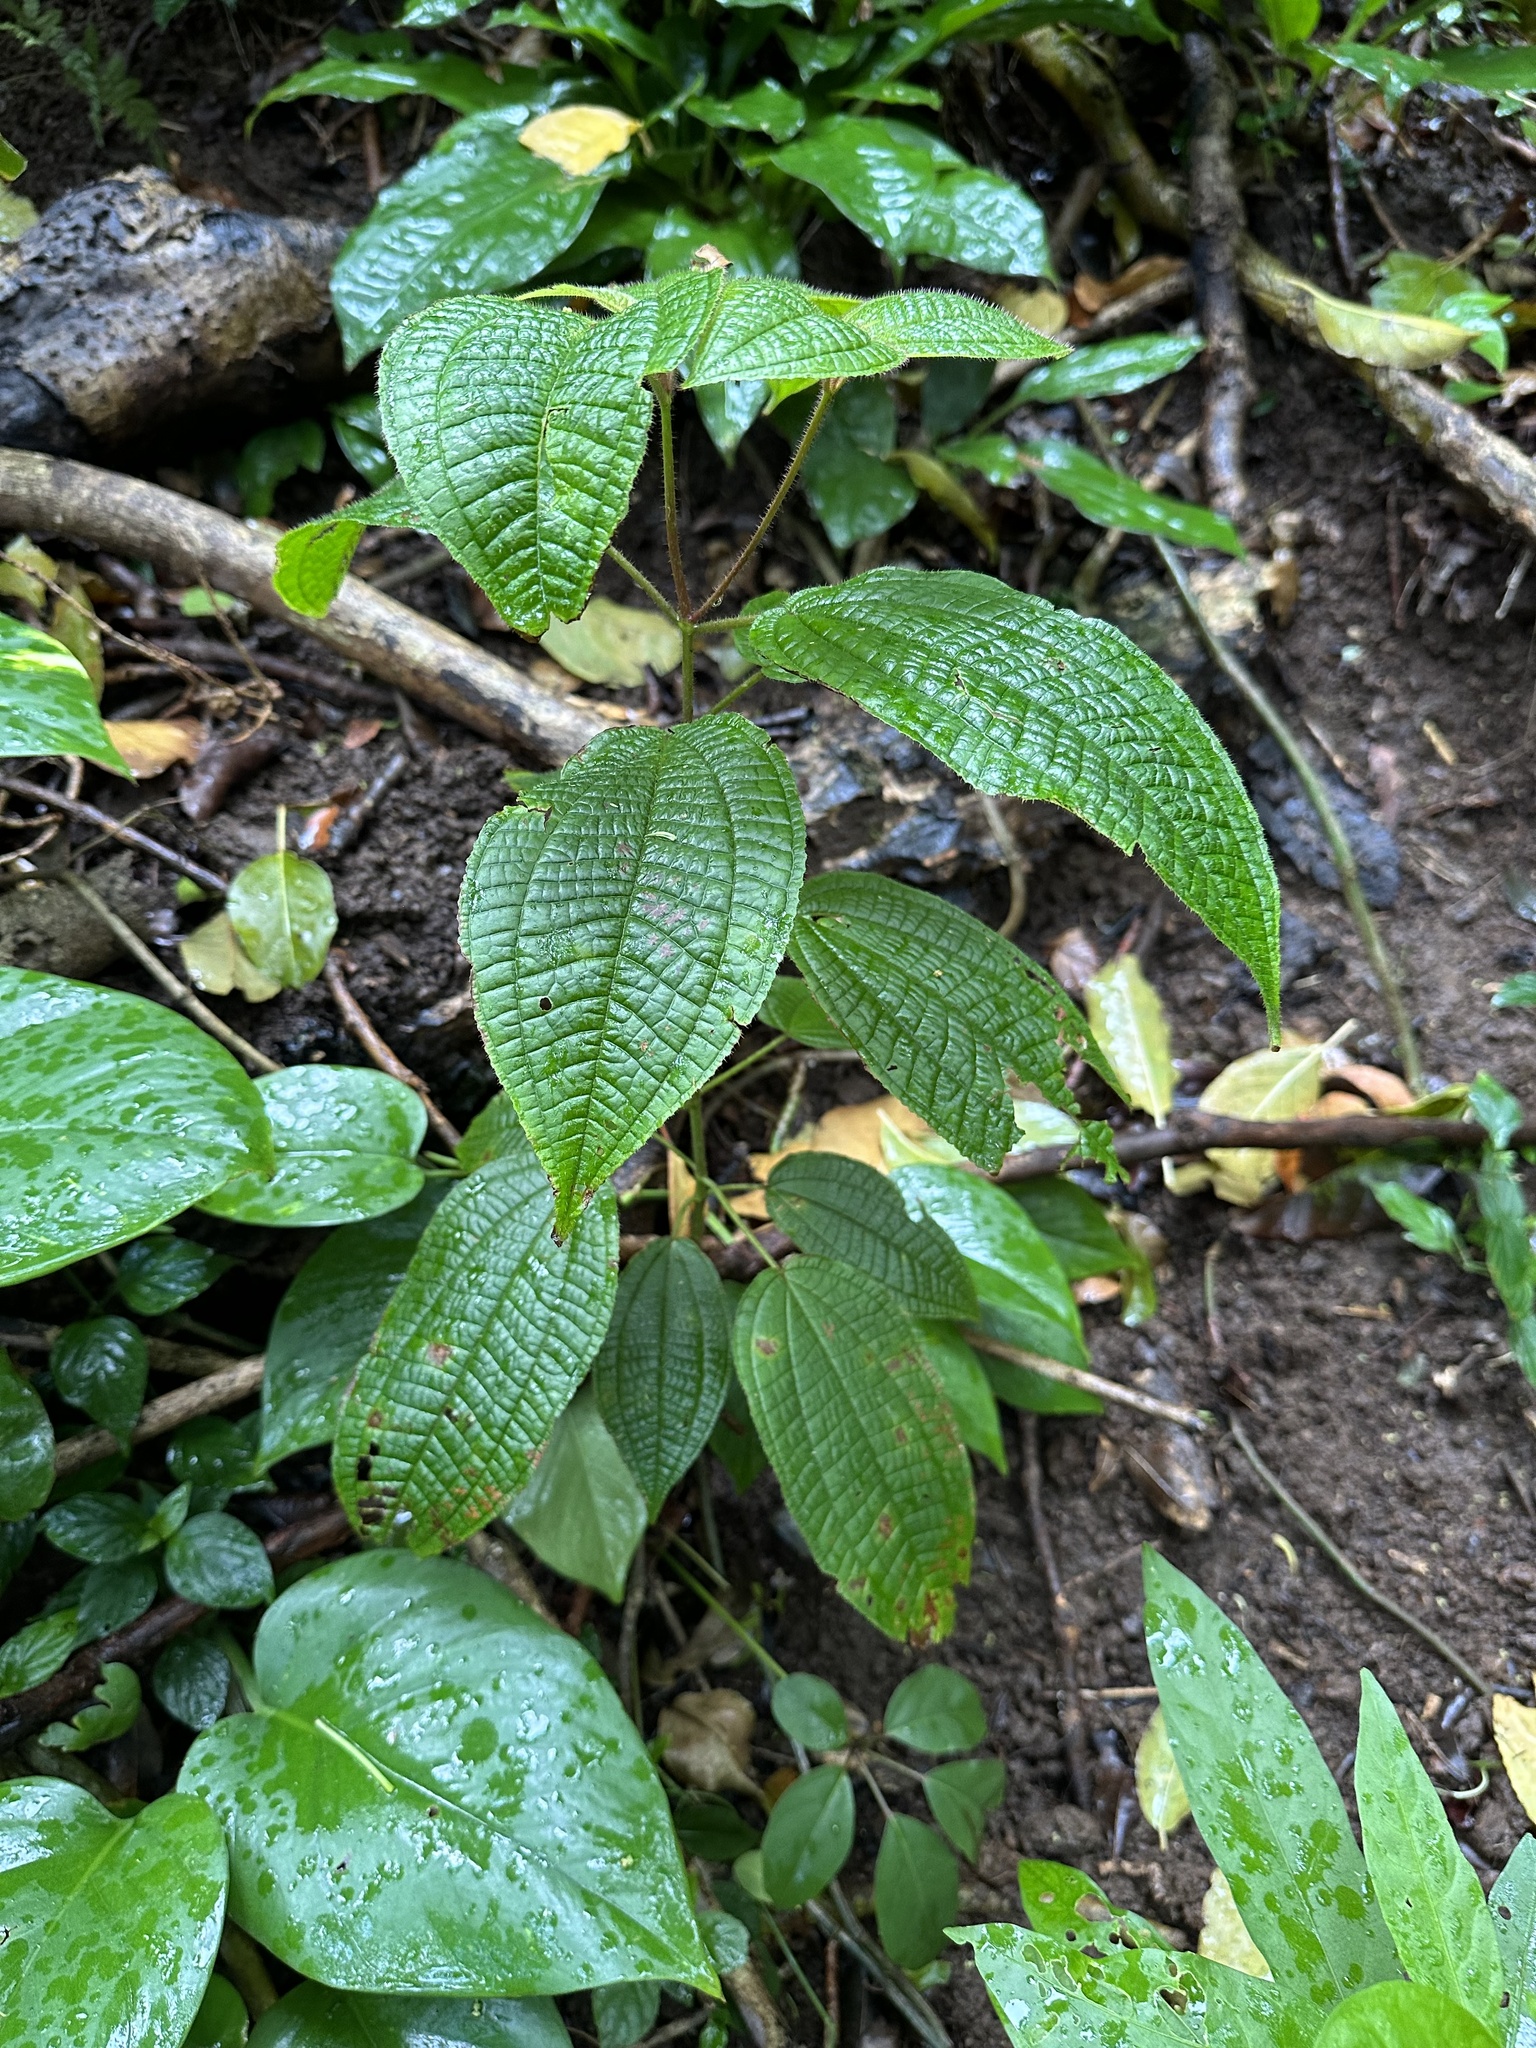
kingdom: Plantae
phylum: Tracheophyta
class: Magnoliopsida
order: Myrtales
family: Melastomataceae
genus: Miconia
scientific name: Miconia crenata
